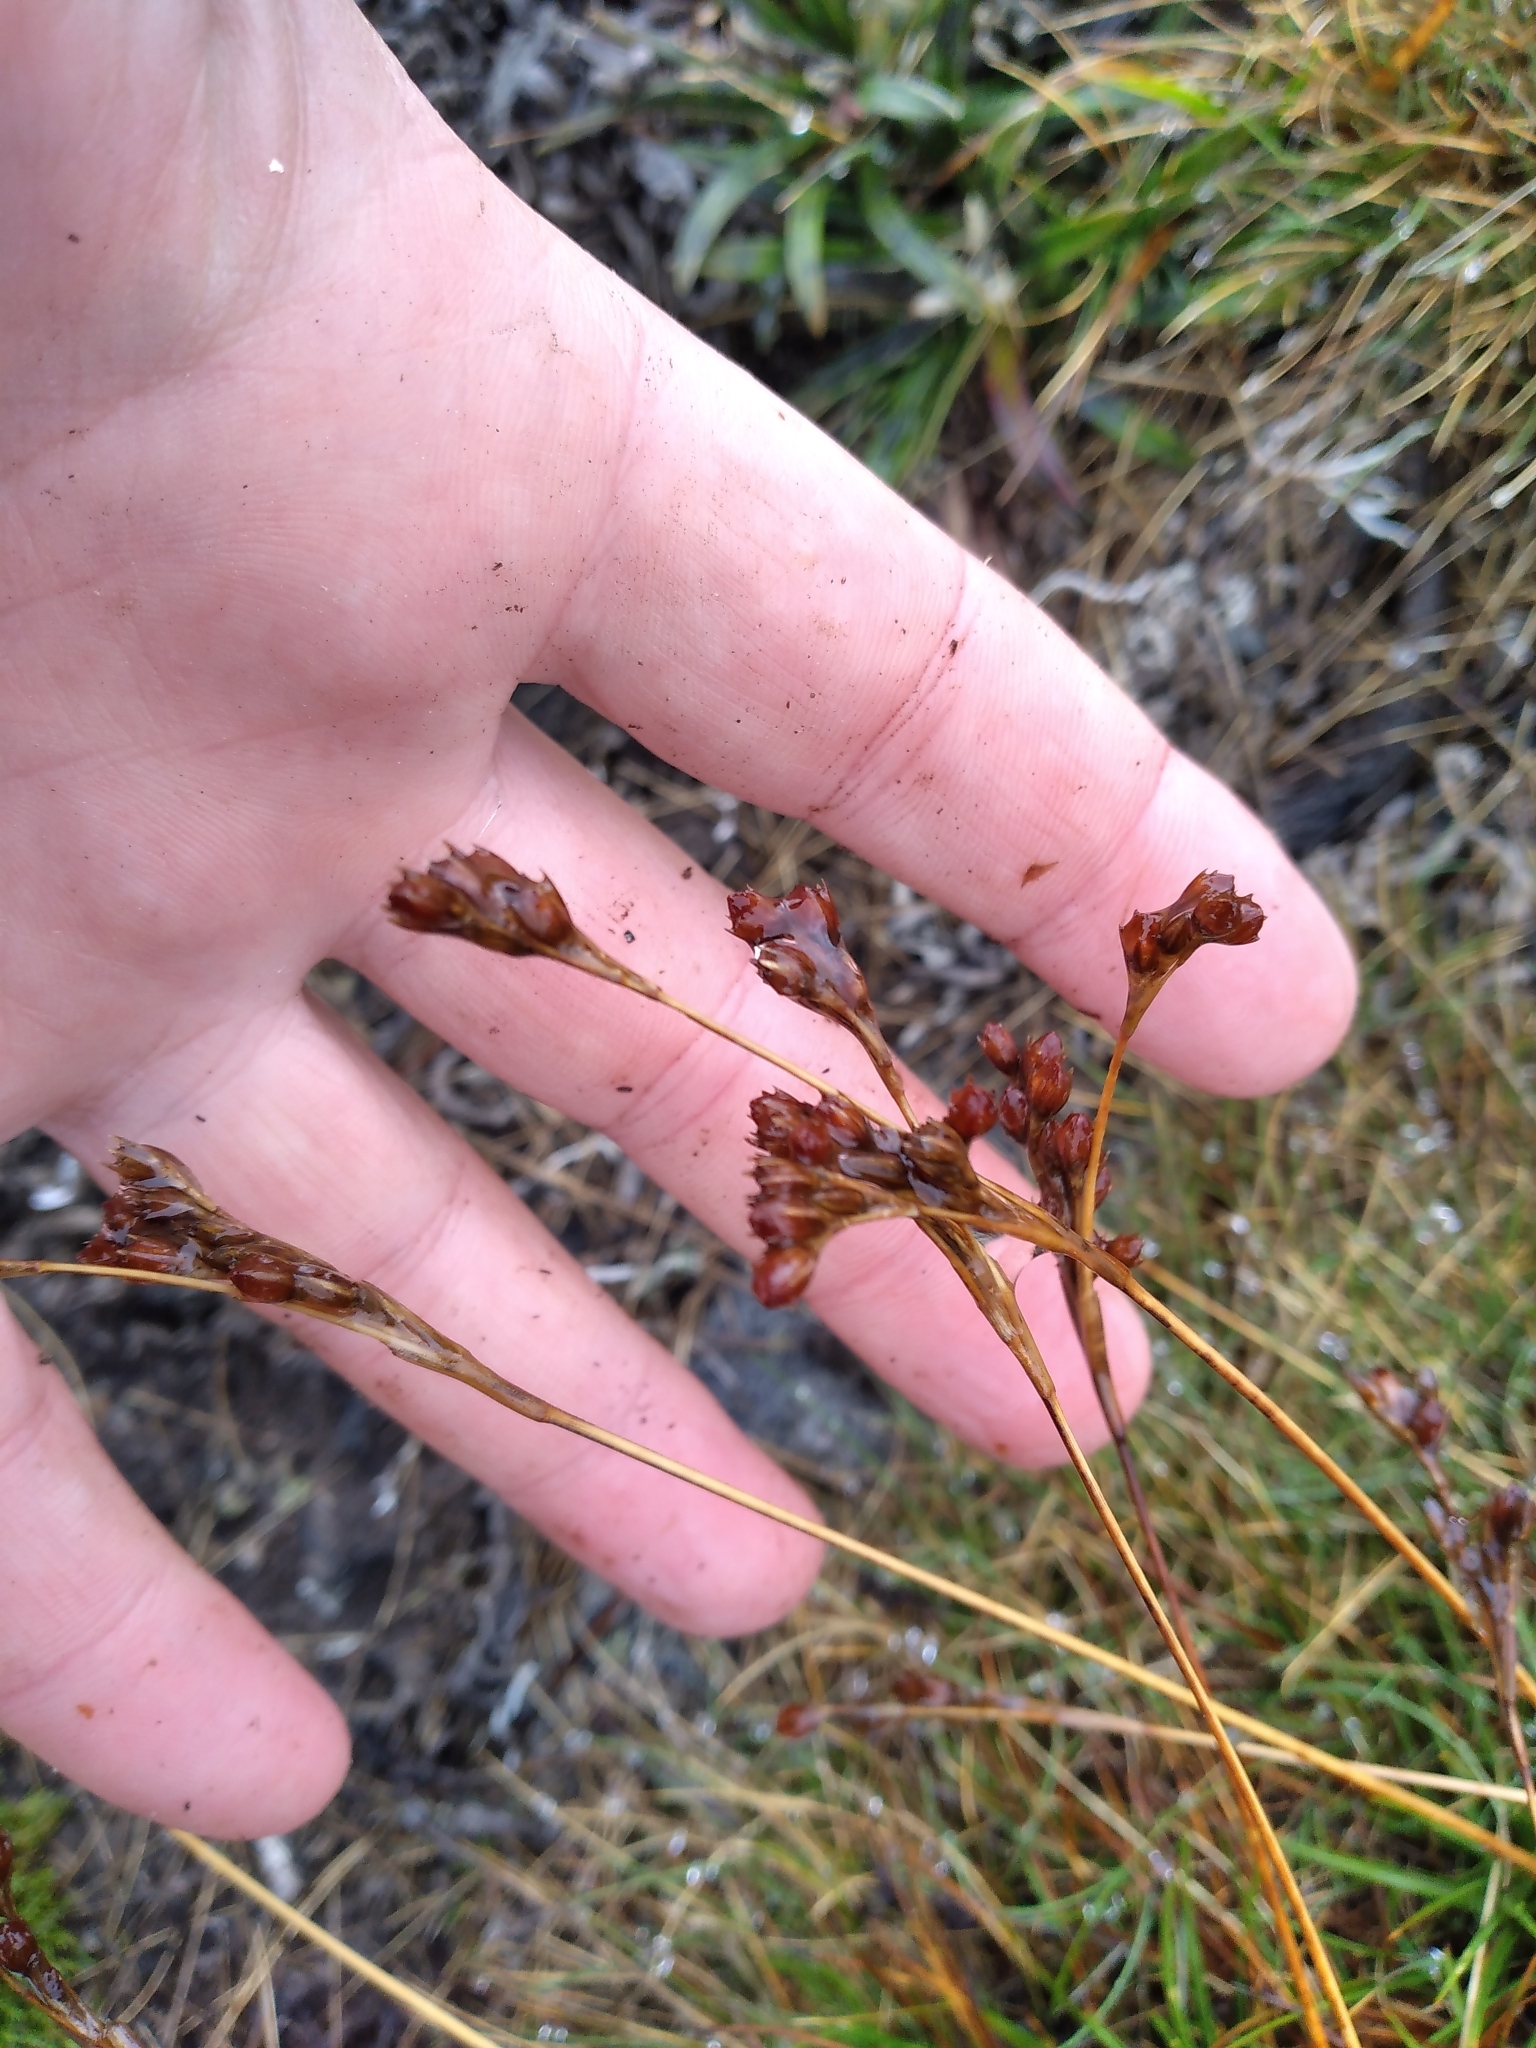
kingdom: Plantae
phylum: Tracheophyta
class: Liliopsida
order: Poales
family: Juncaceae
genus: Juncus
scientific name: Juncus squarrosus
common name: Heath rush
